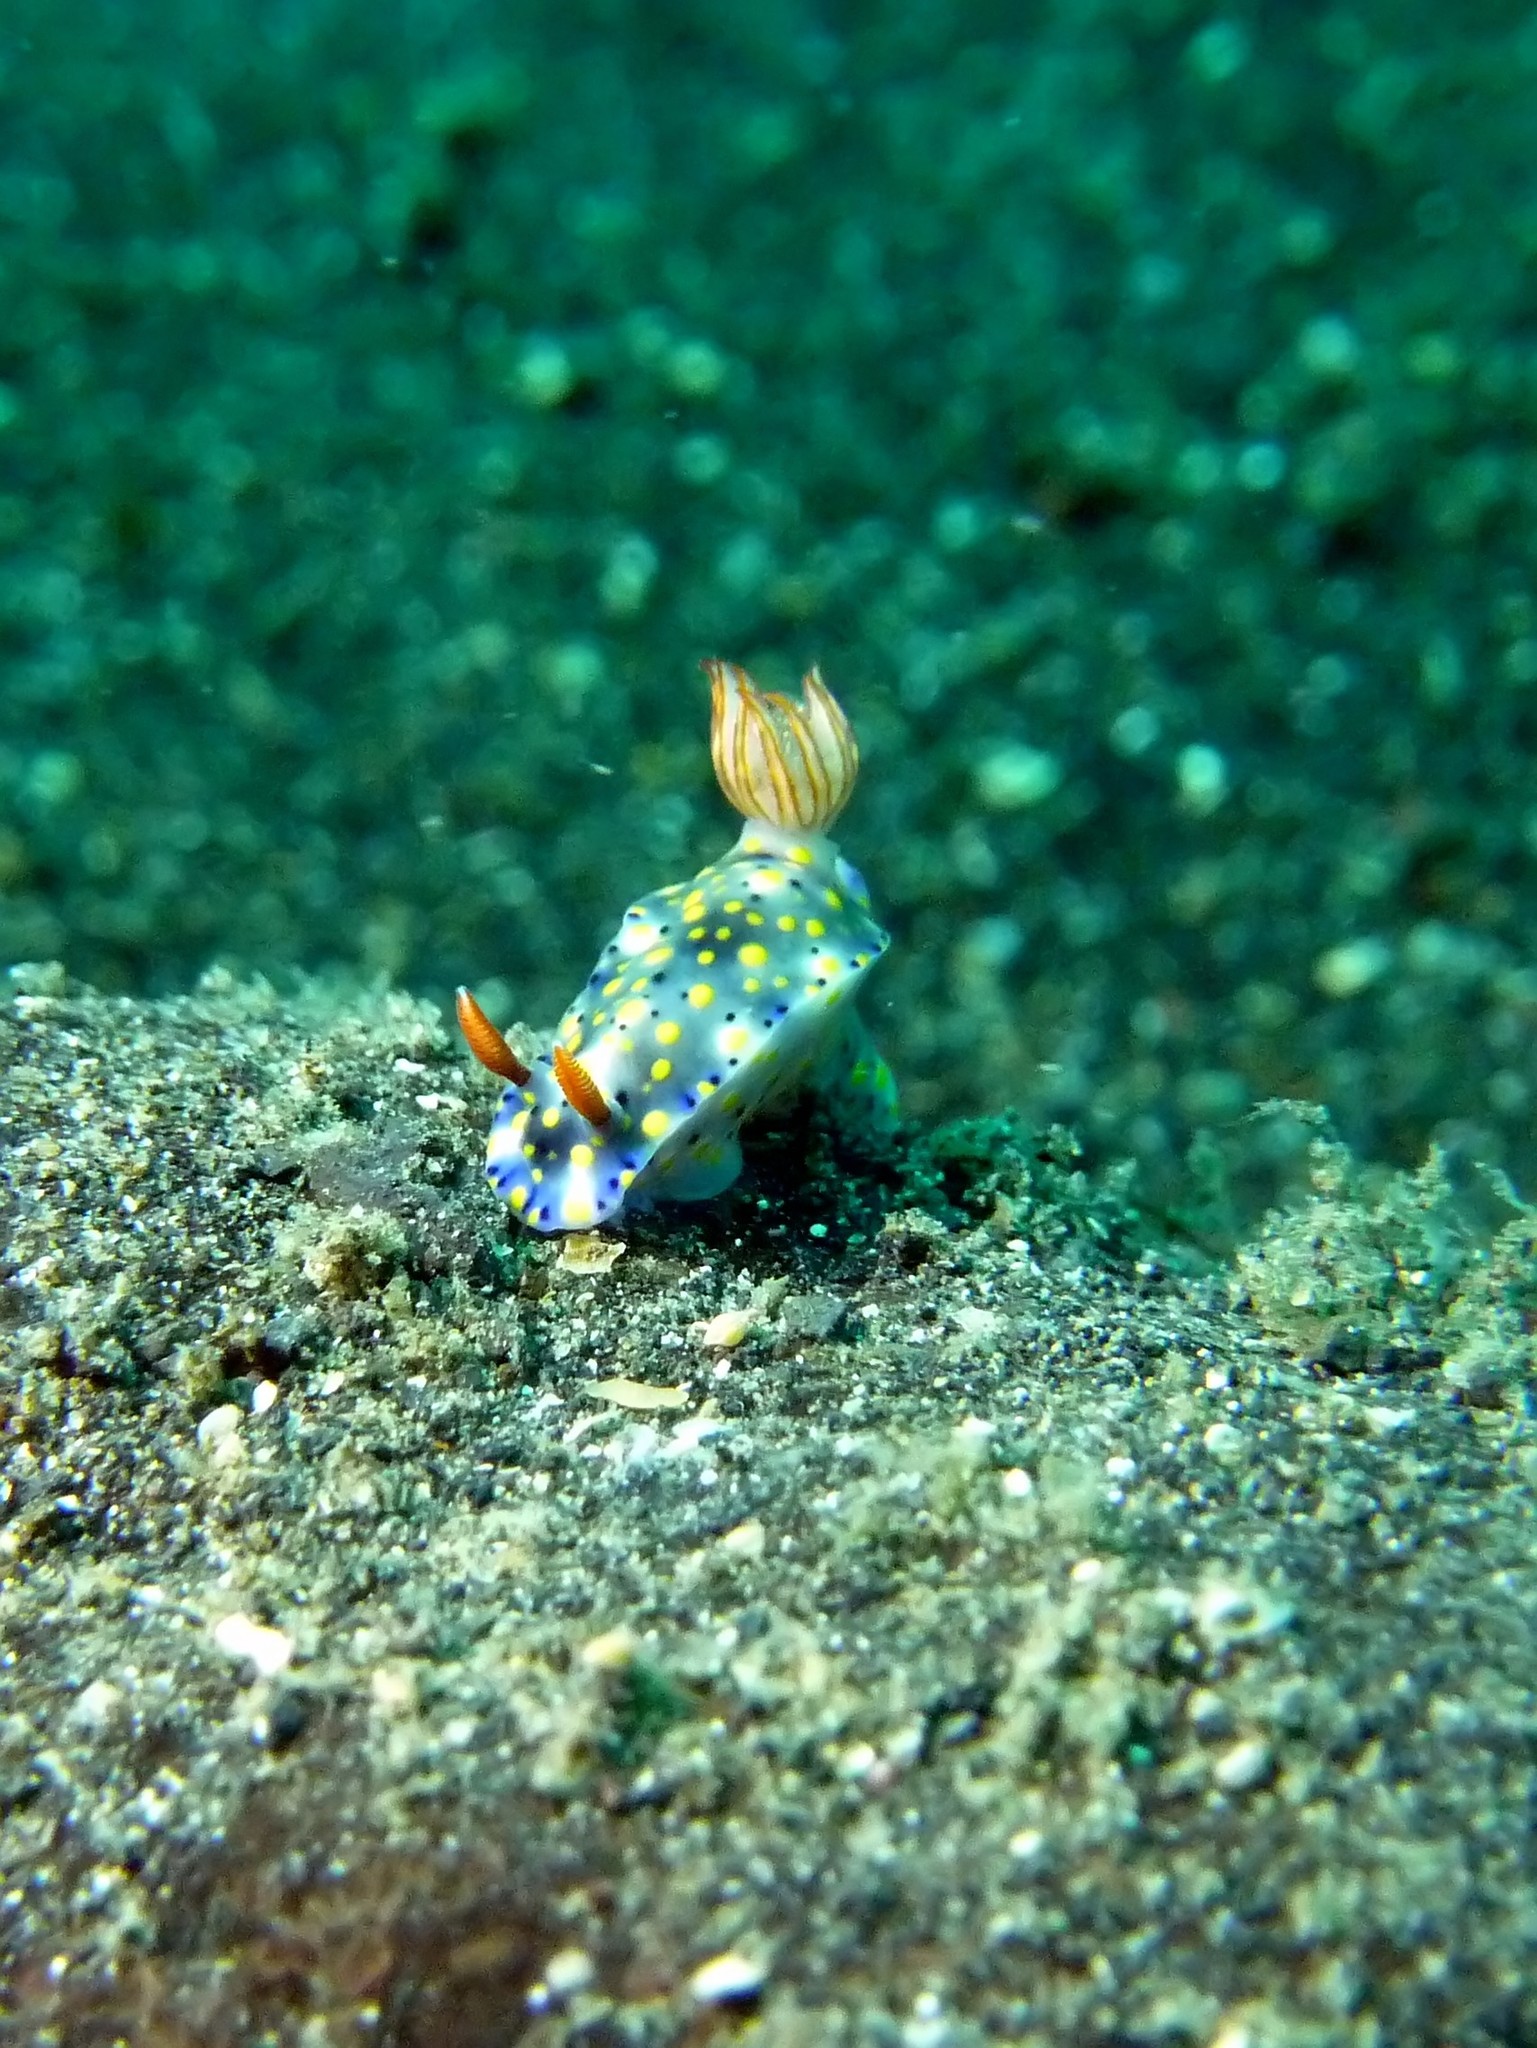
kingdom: Animalia
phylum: Mollusca
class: Gastropoda
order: Nudibranchia
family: Chromodorididae
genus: Hypselodoris
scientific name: Hypselodoris roo
